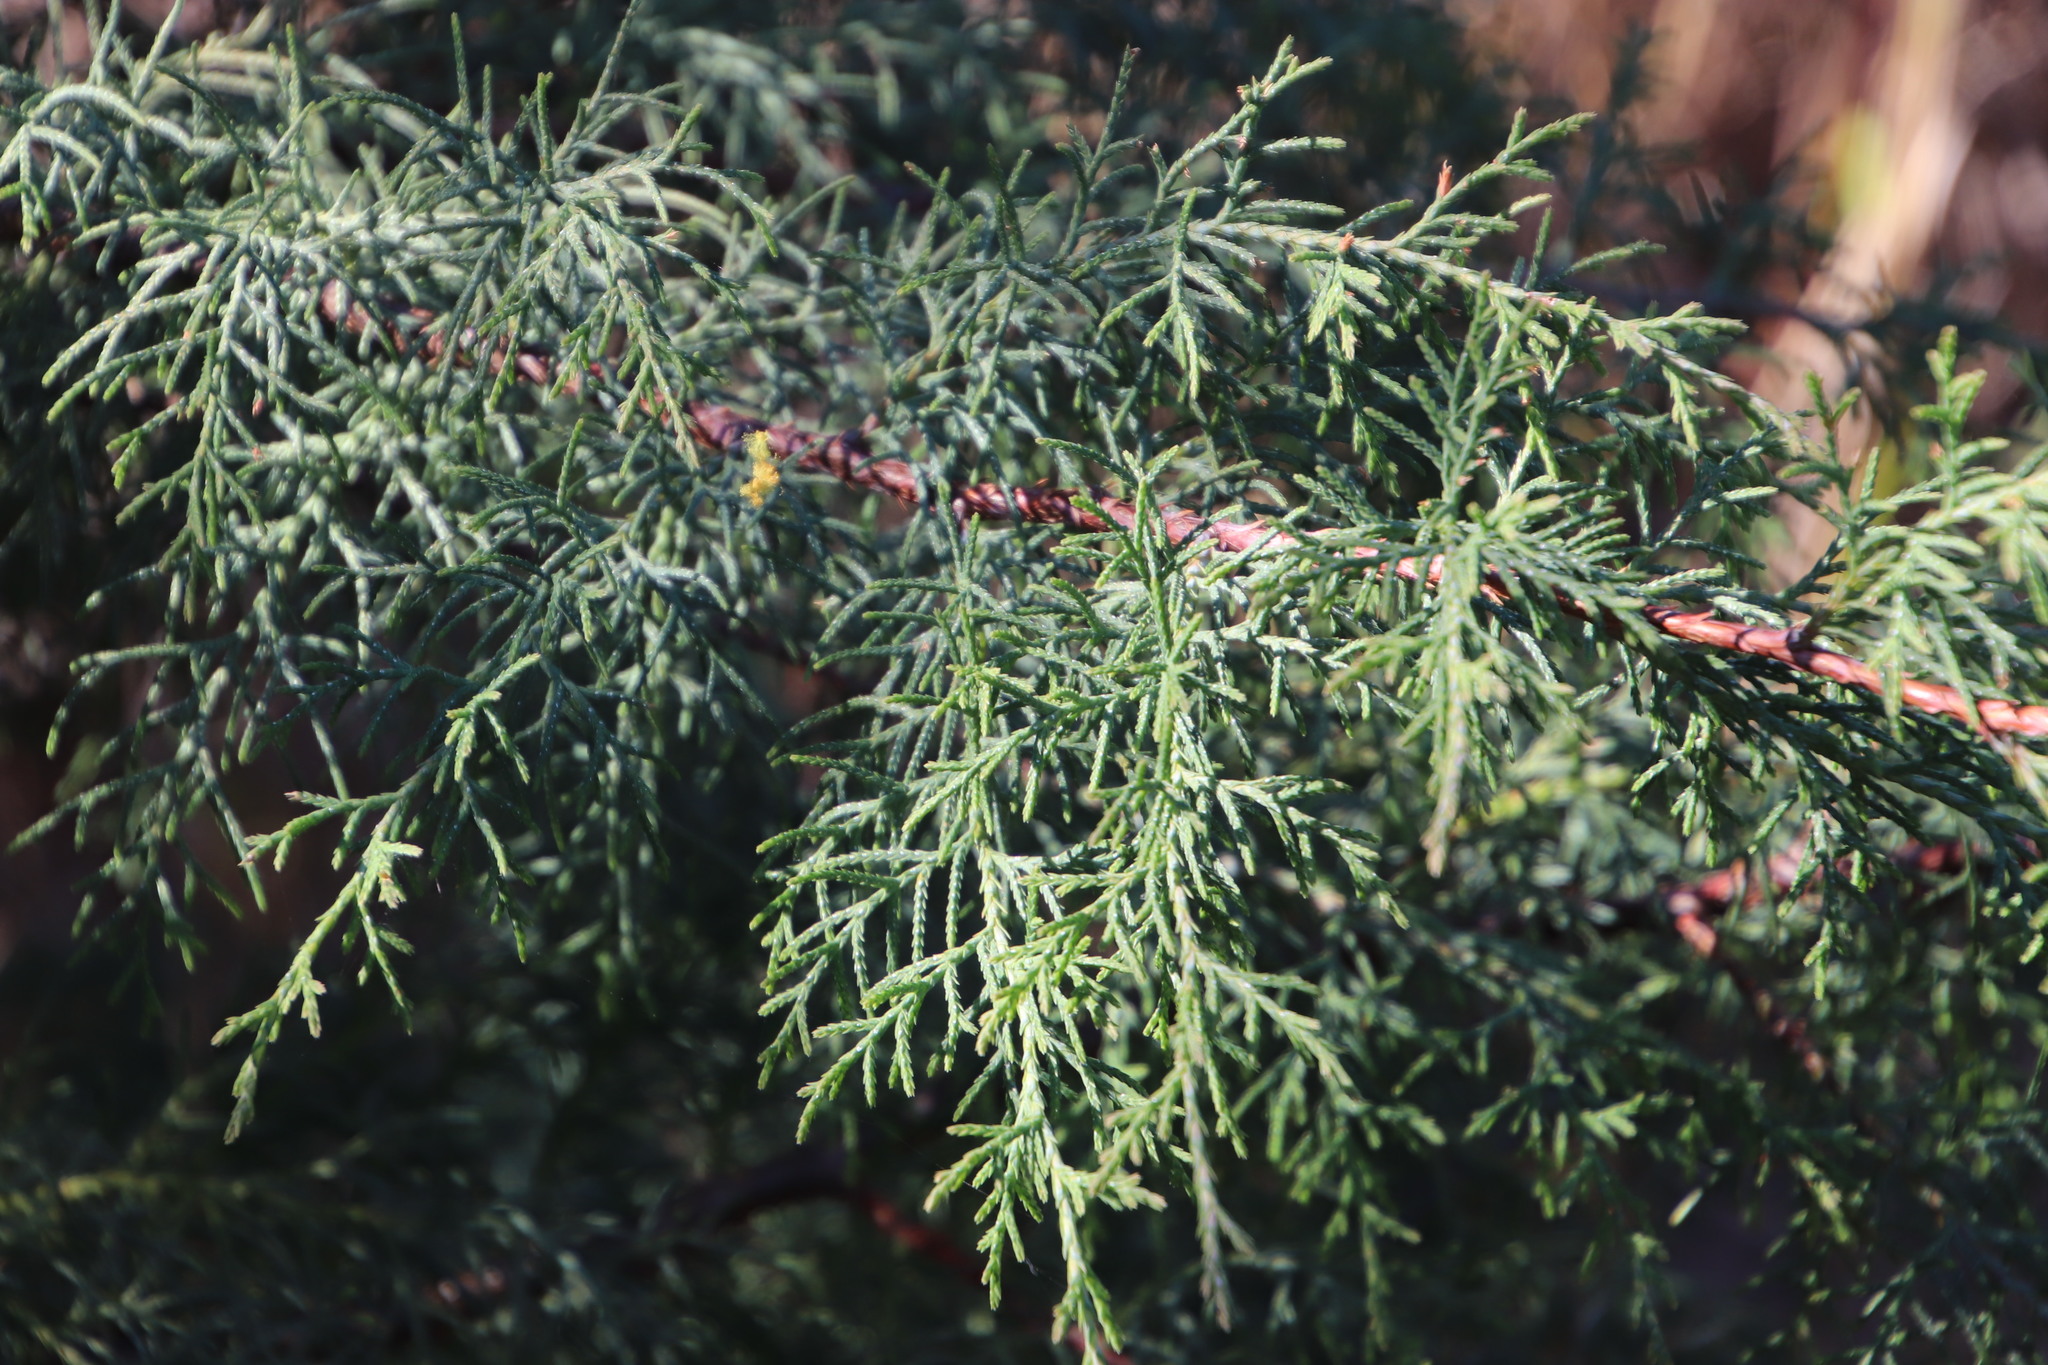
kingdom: Plantae
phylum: Tracheophyta
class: Pinopsida
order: Pinales
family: Cupressaceae
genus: Cupressus
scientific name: Cupressus lusitanica
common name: Mexican cypress
